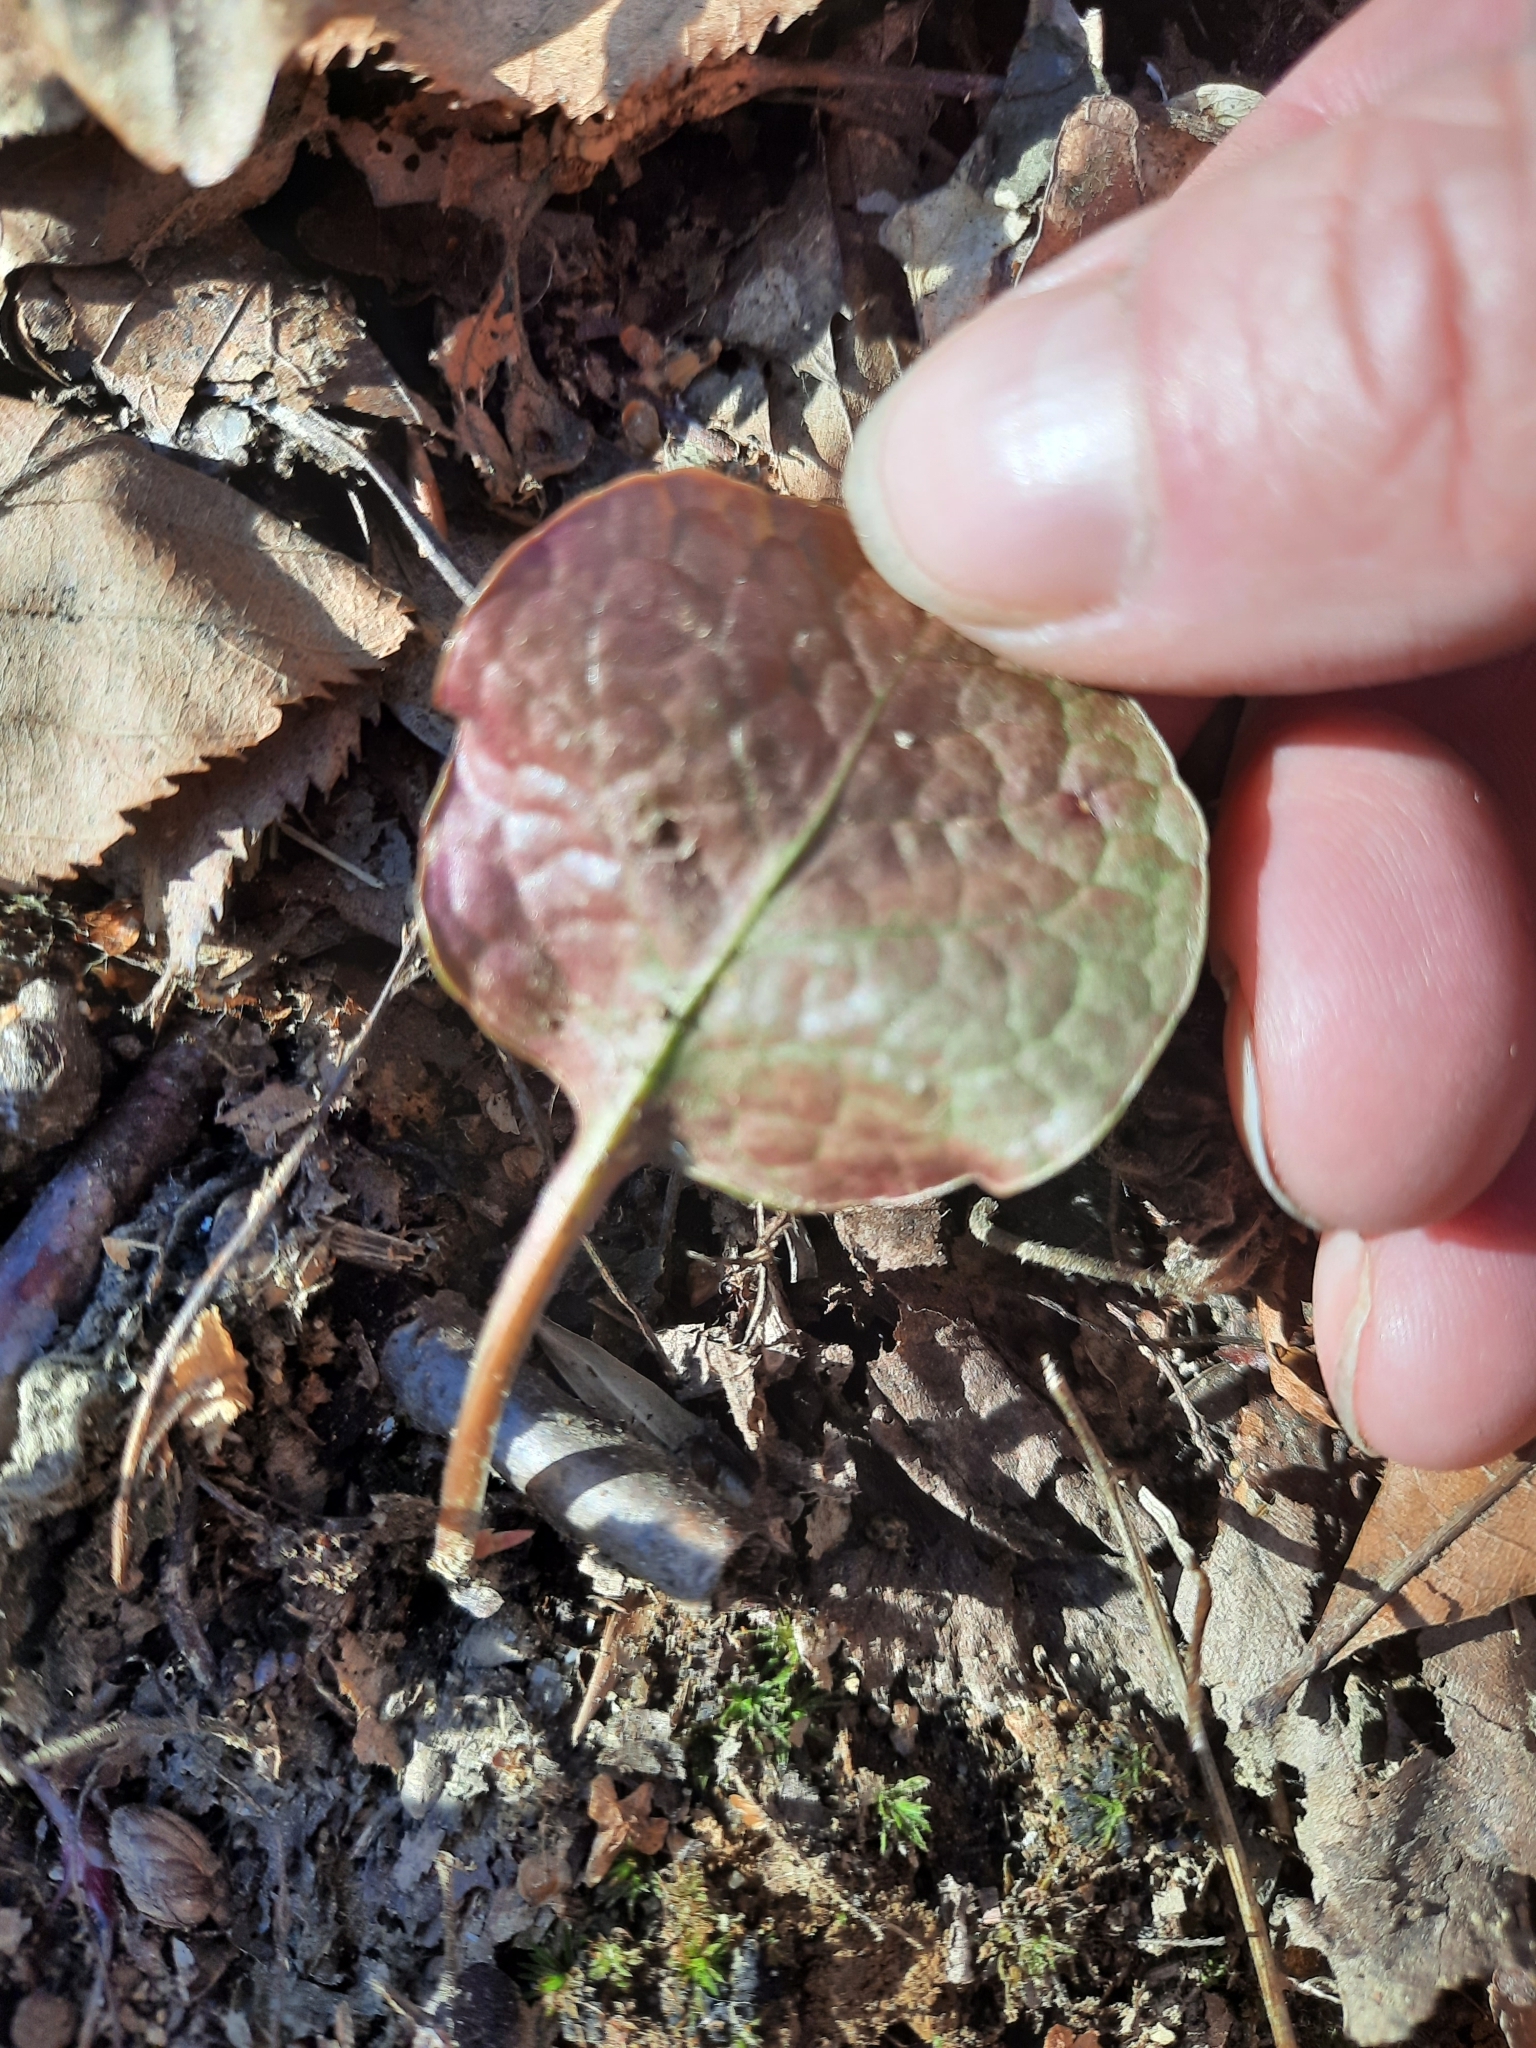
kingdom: Plantae
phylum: Tracheophyta
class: Magnoliopsida
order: Ericales
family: Ericaceae
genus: Pyrola
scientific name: Pyrola americana
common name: American wintergreen
